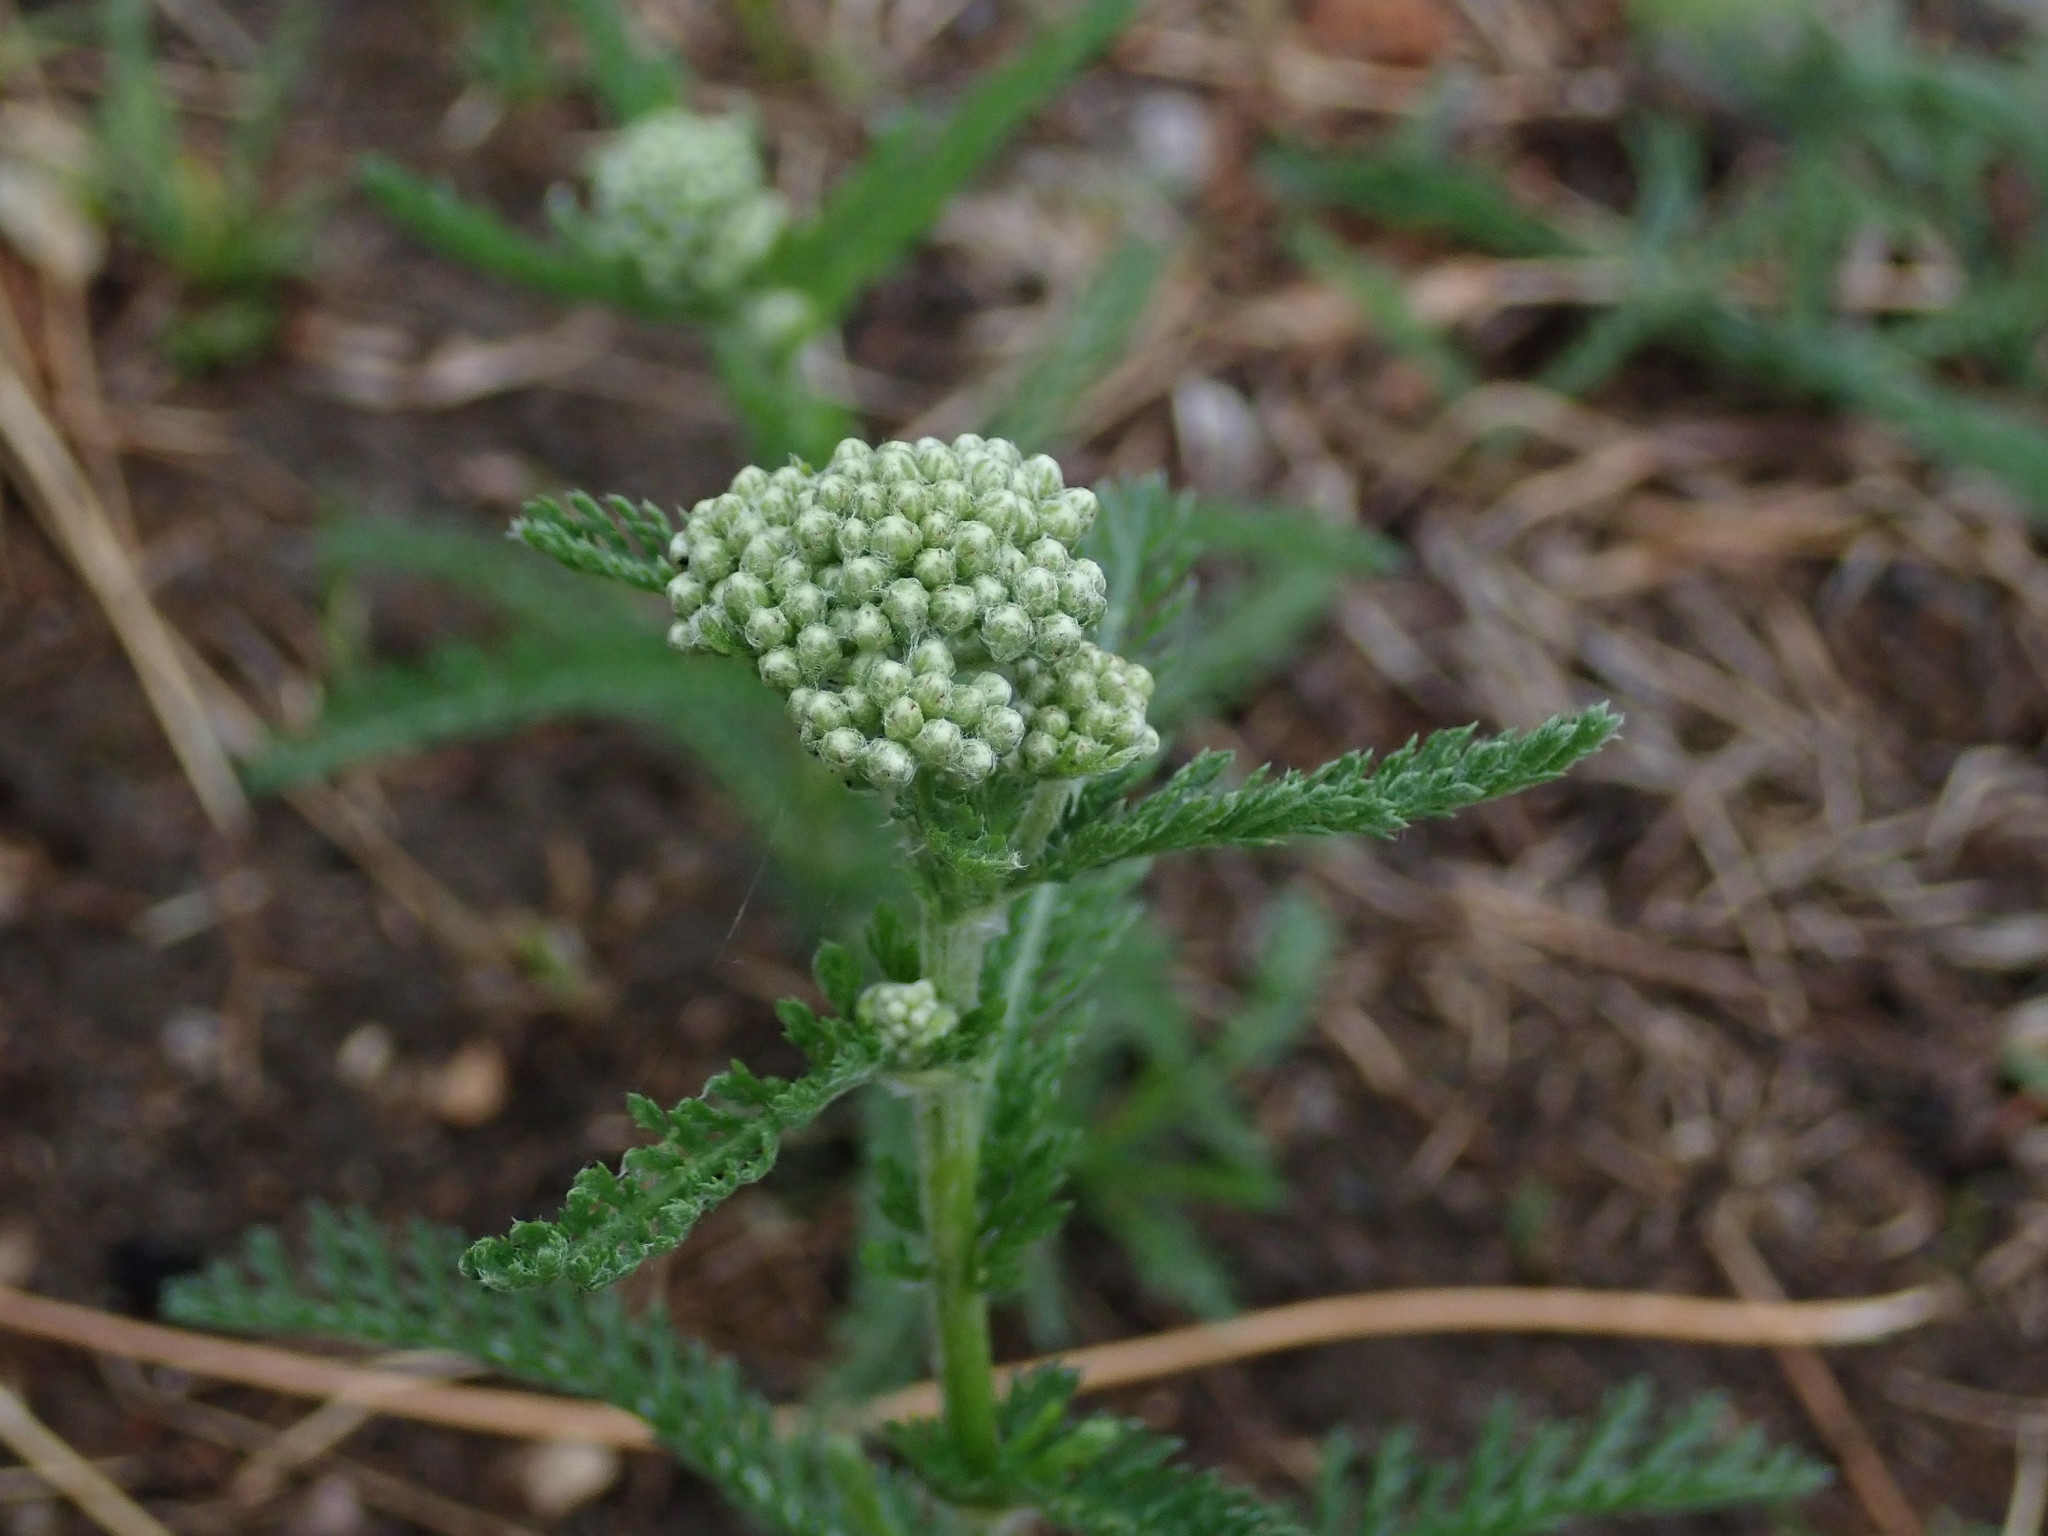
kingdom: Plantae
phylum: Tracheophyta
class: Magnoliopsida
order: Asterales
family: Asteraceae
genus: Achillea
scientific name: Achillea millefolium
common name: Yarrow
